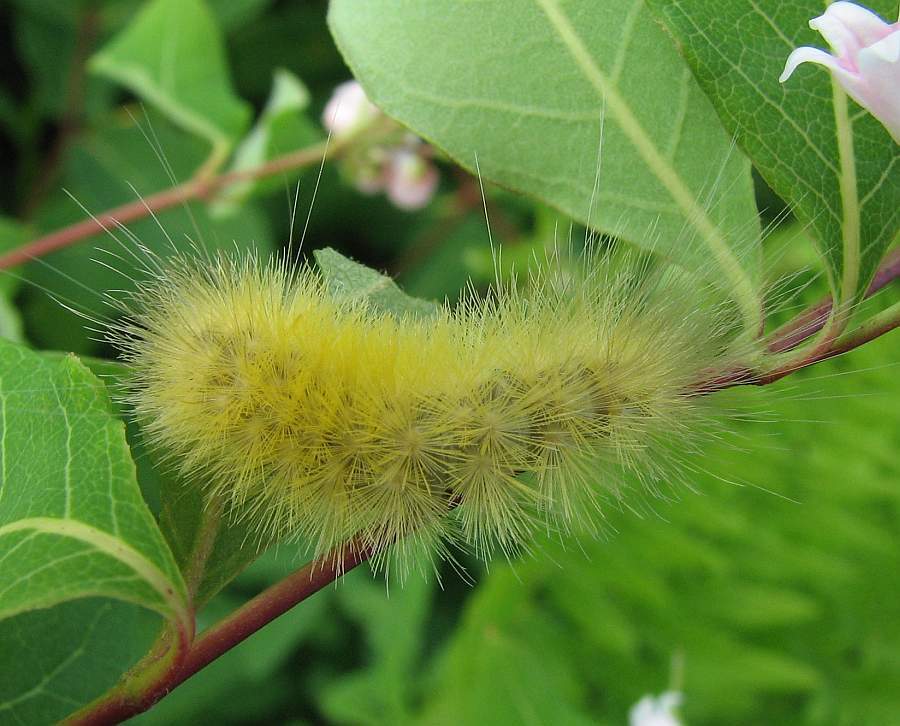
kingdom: Animalia
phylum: Arthropoda
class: Insecta
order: Lepidoptera
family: Erebidae
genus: Spilosoma
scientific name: Spilosoma virginica
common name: Virginia tiger moth
